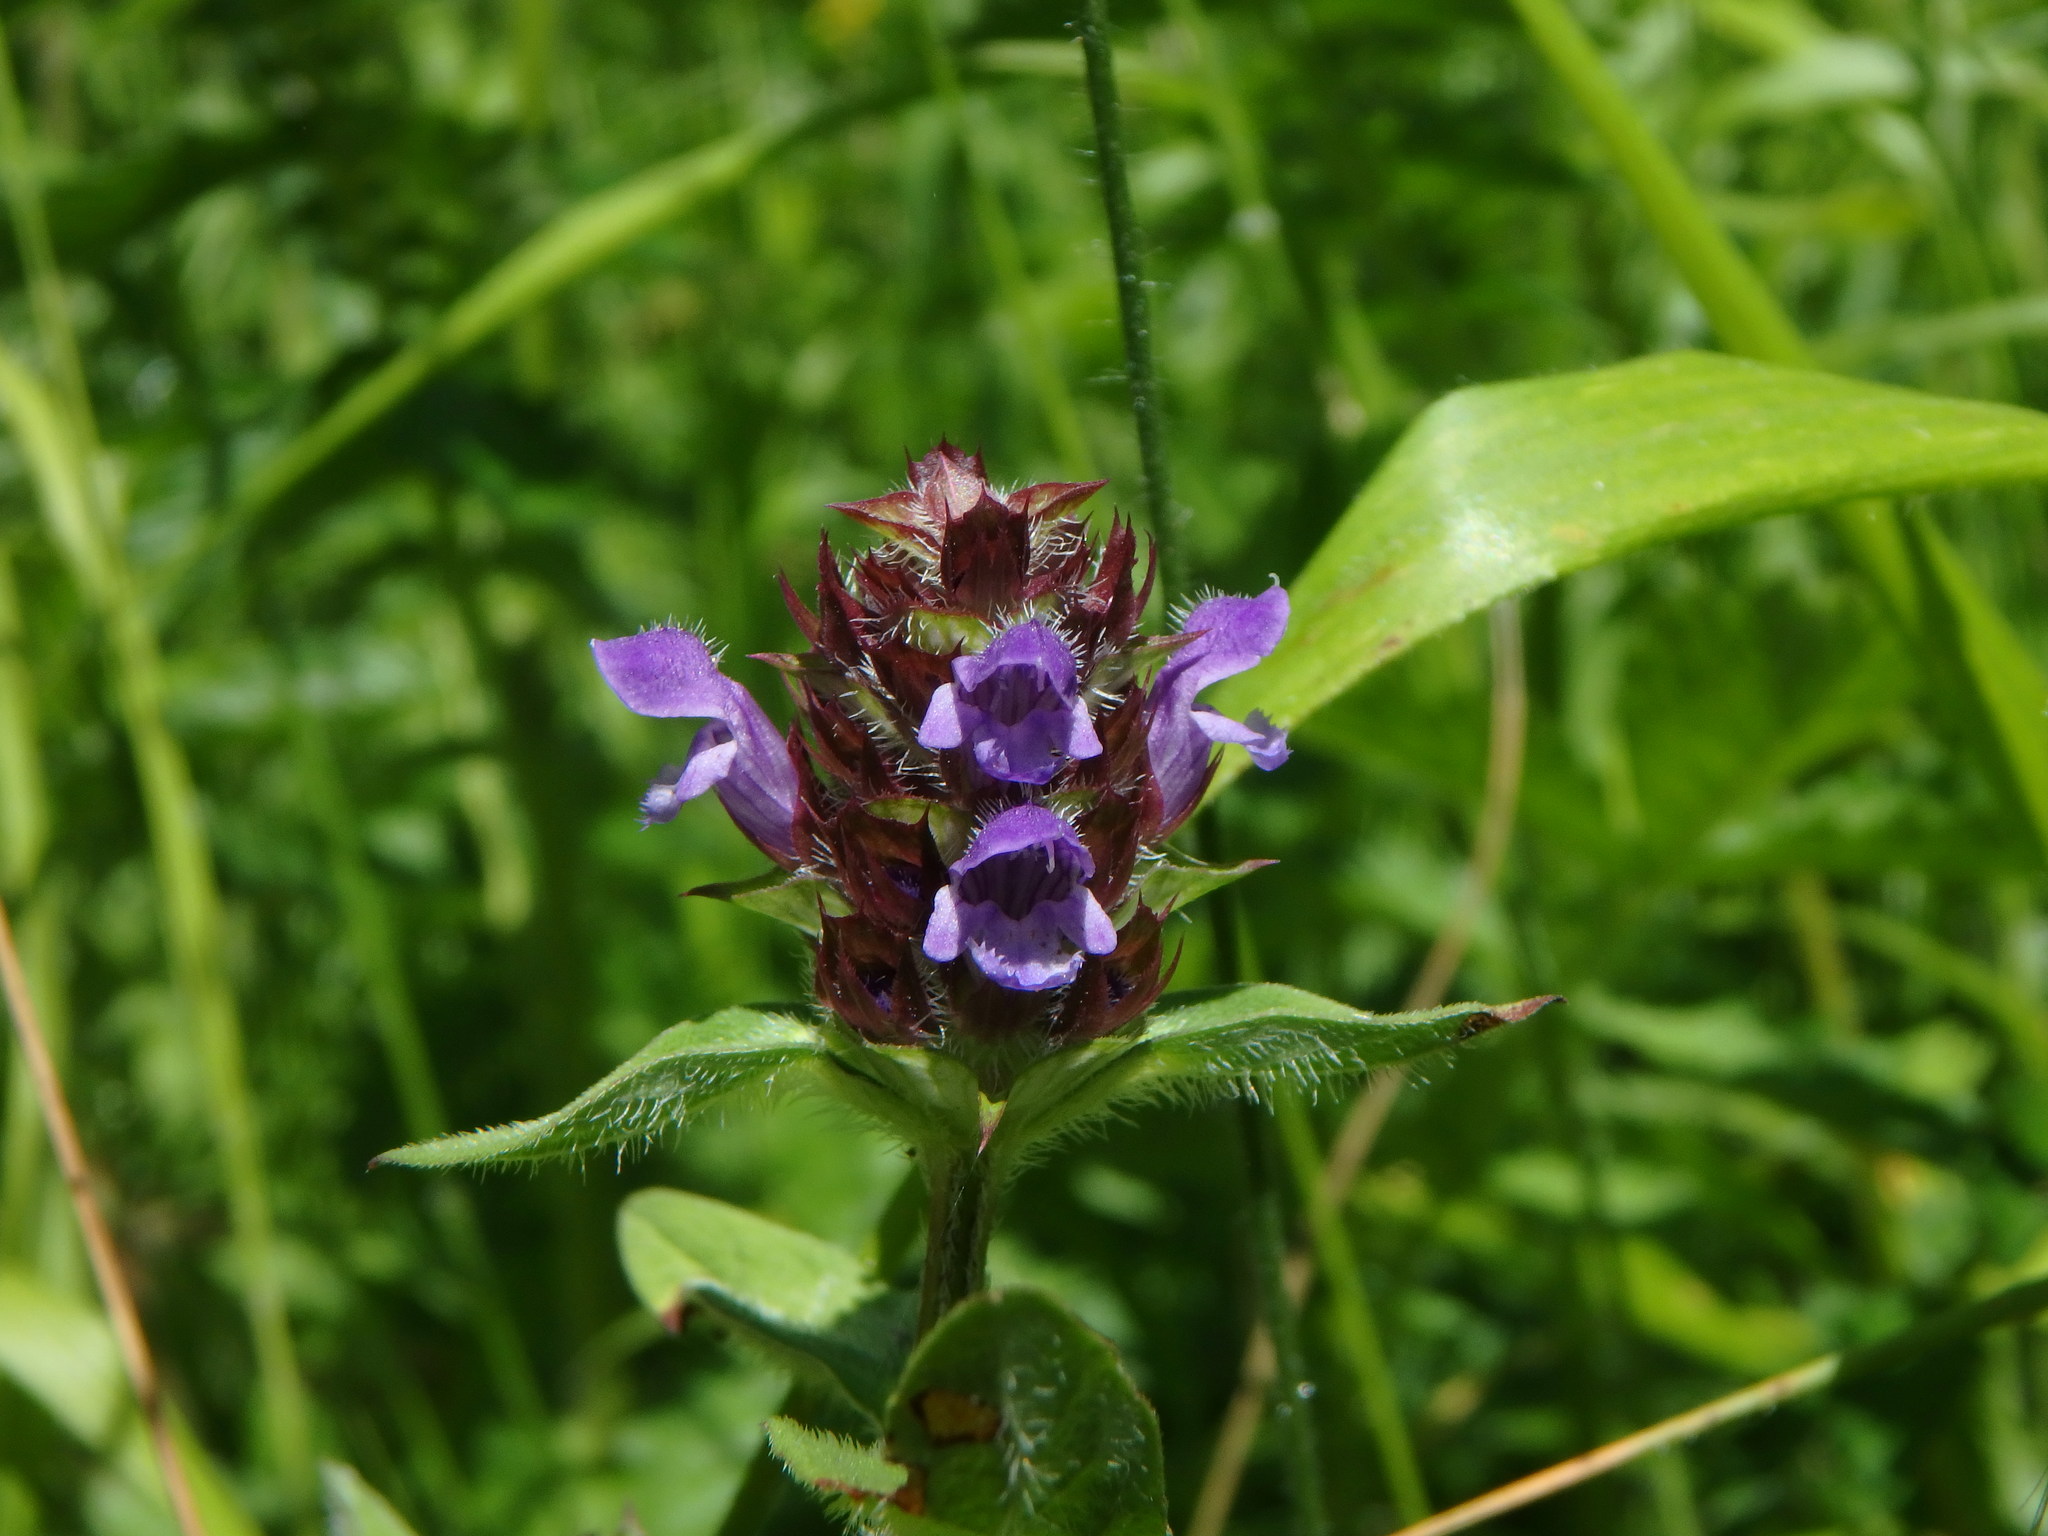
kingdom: Plantae
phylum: Tracheophyta
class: Magnoliopsida
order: Lamiales
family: Lamiaceae
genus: Prunella
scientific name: Prunella vulgaris
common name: Heal-all
